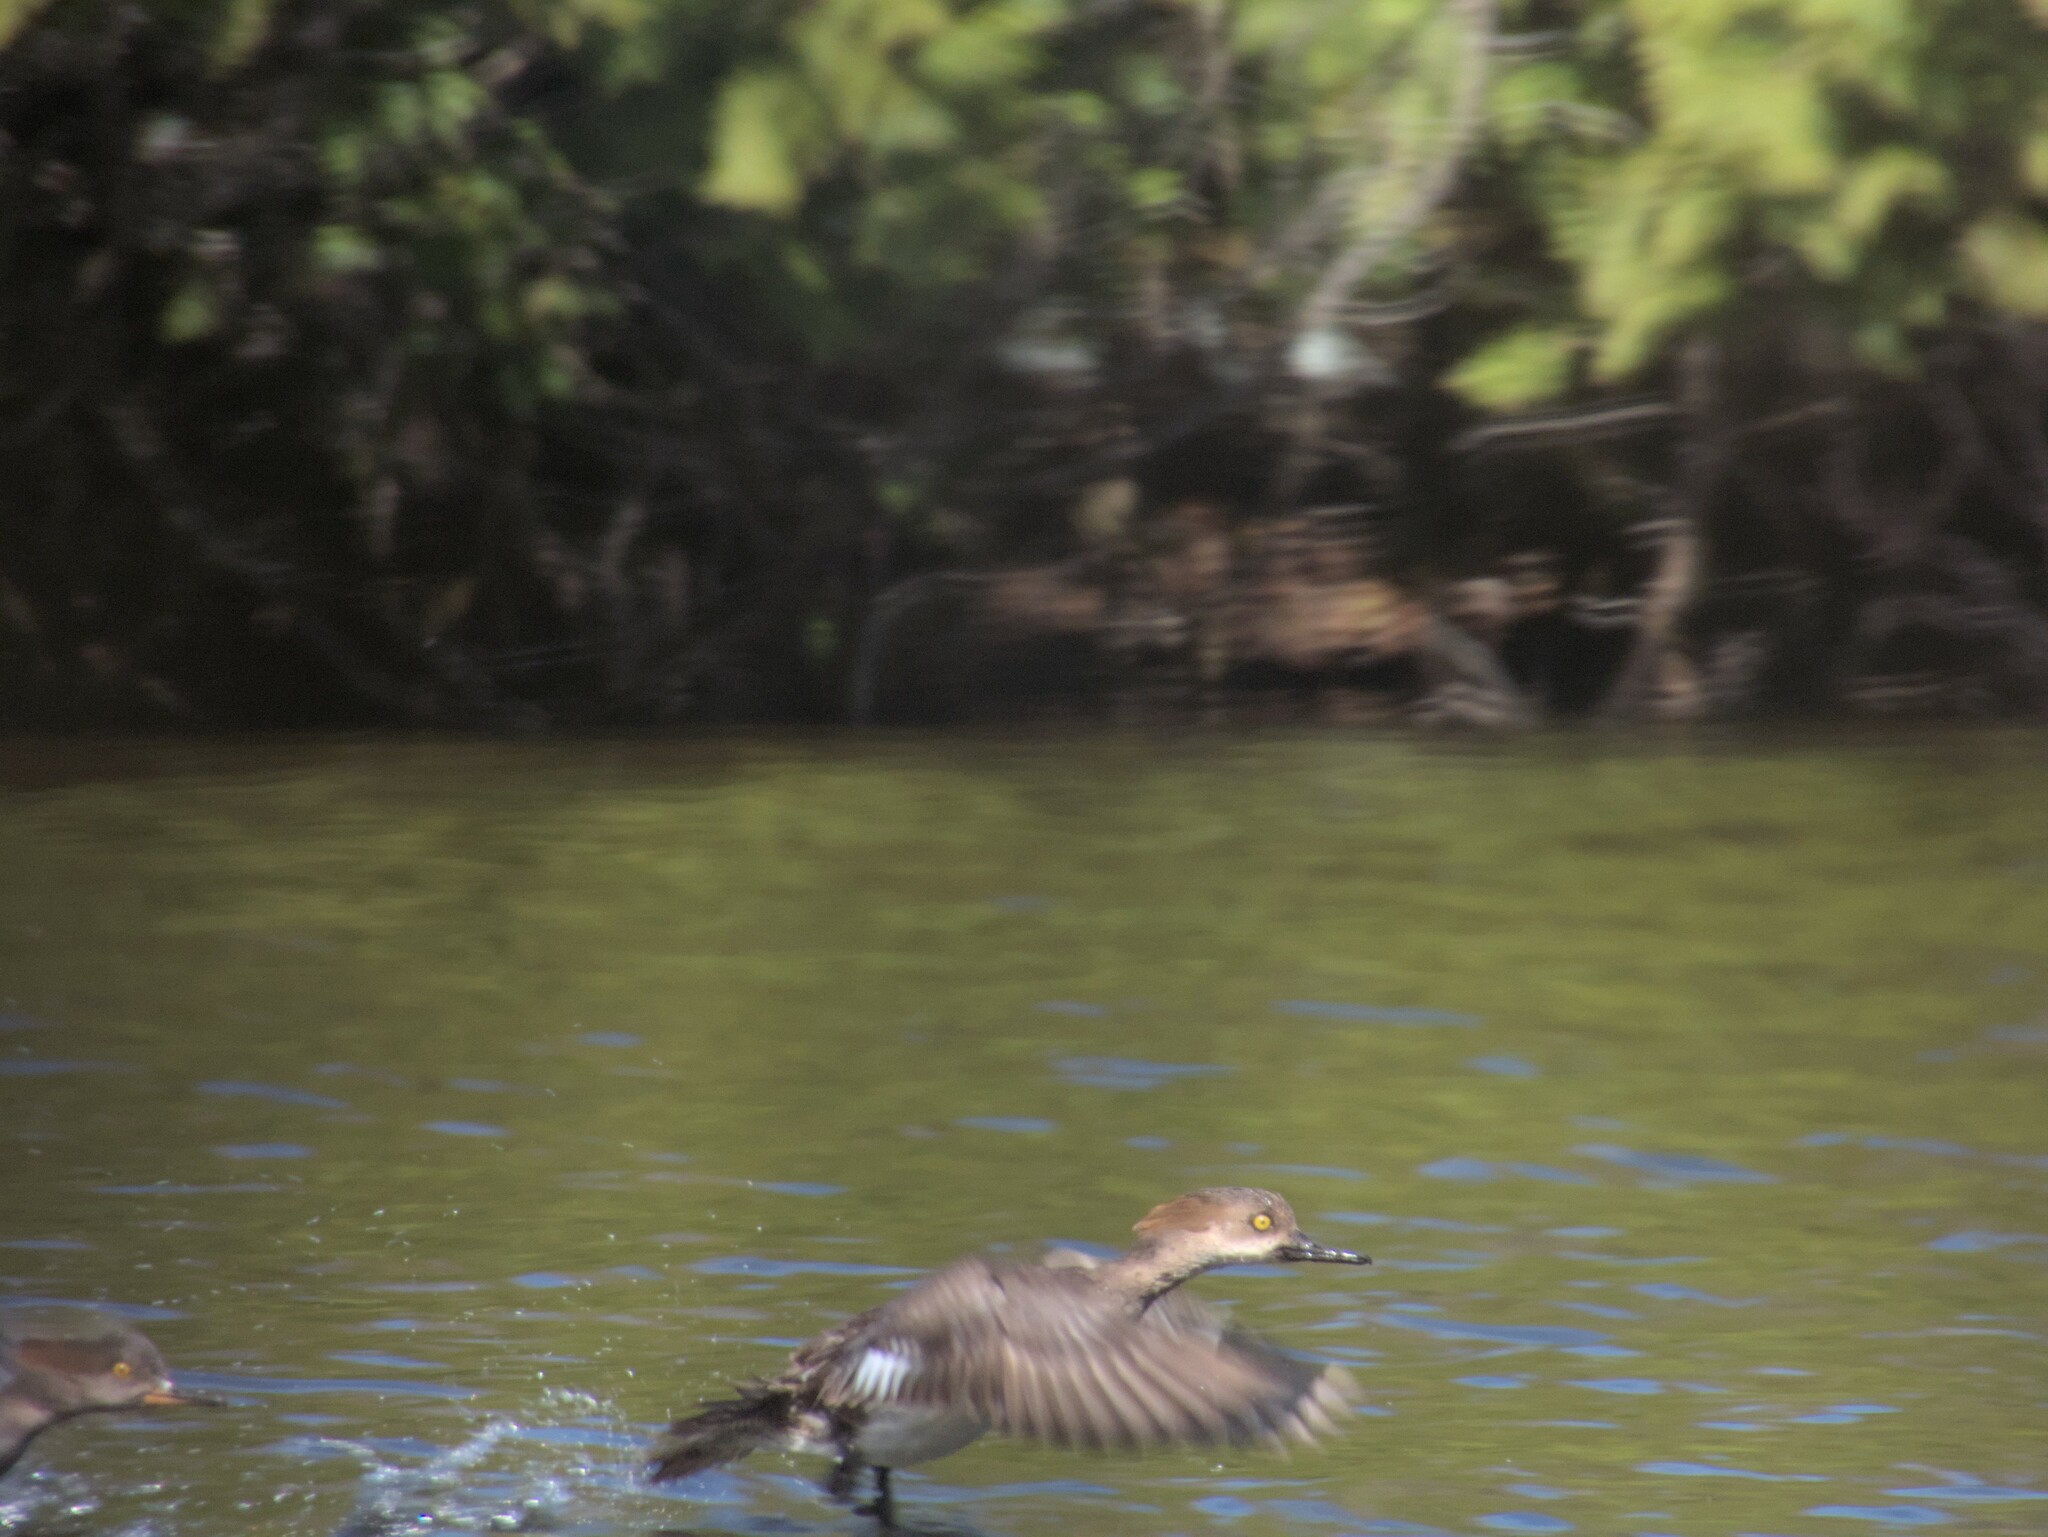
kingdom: Animalia
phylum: Chordata
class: Aves
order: Anseriformes
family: Anatidae
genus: Lophodytes
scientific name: Lophodytes cucullatus
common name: Hooded merganser
